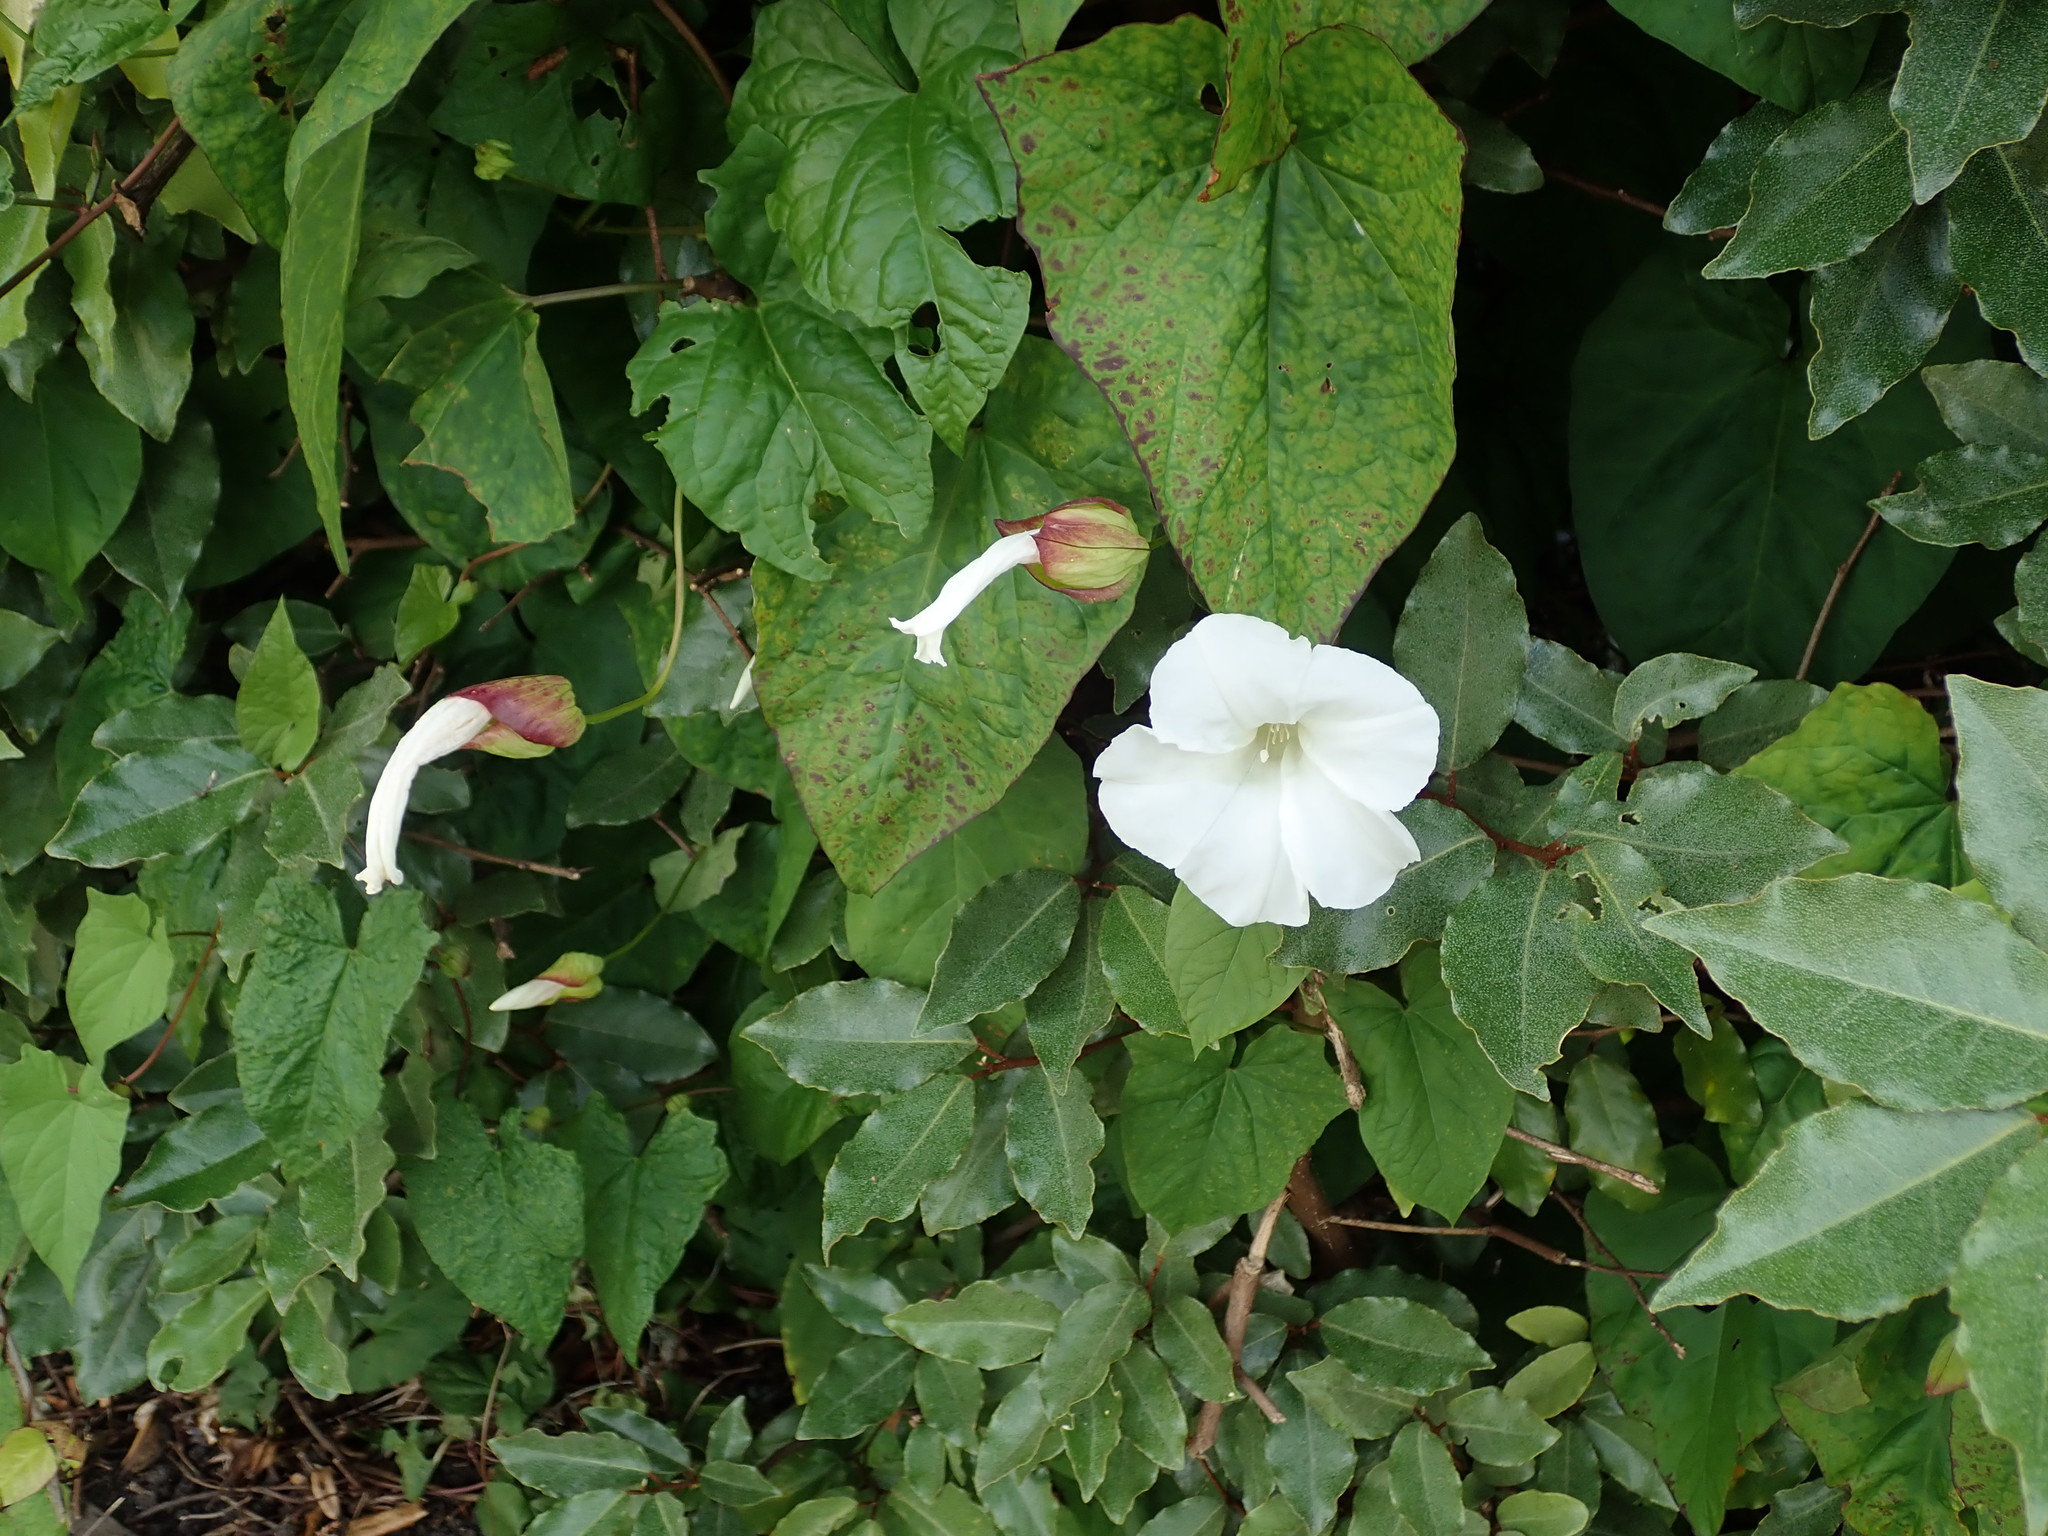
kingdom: Plantae
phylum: Tracheophyta
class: Magnoliopsida
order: Solanales
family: Convolvulaceae
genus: Calystegia
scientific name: Calystegia silvatica
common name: Large bindweed
